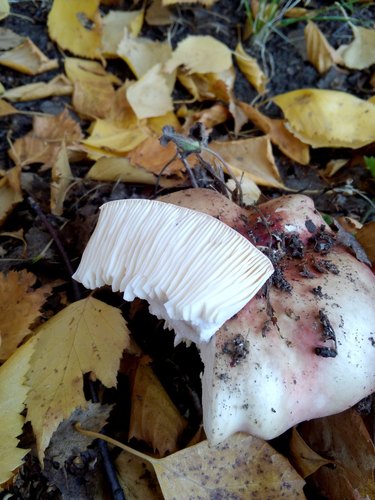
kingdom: Fungi
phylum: Basidiomycota
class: Agaricomycetes
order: Russulales
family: Russulaceae
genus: Russula
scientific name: Russula
